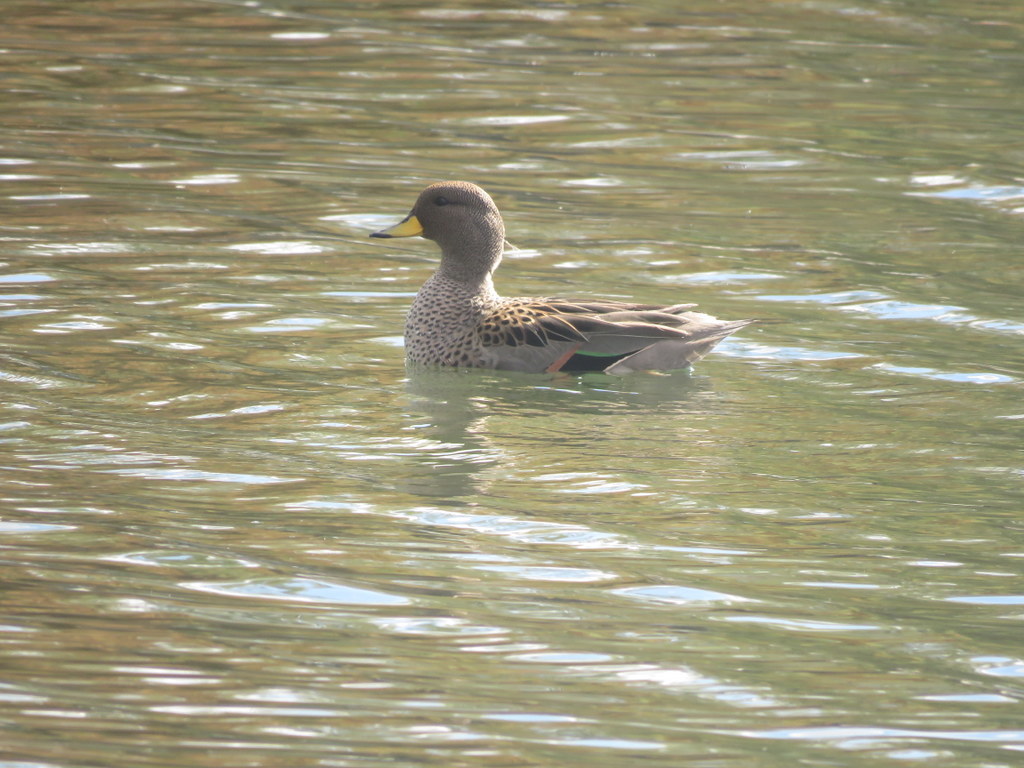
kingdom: Animalia
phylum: Chordata
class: Aves
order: Anseriformes
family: Anatidae
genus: Anas
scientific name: Anas flavirostris
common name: Yellow-billed teal
